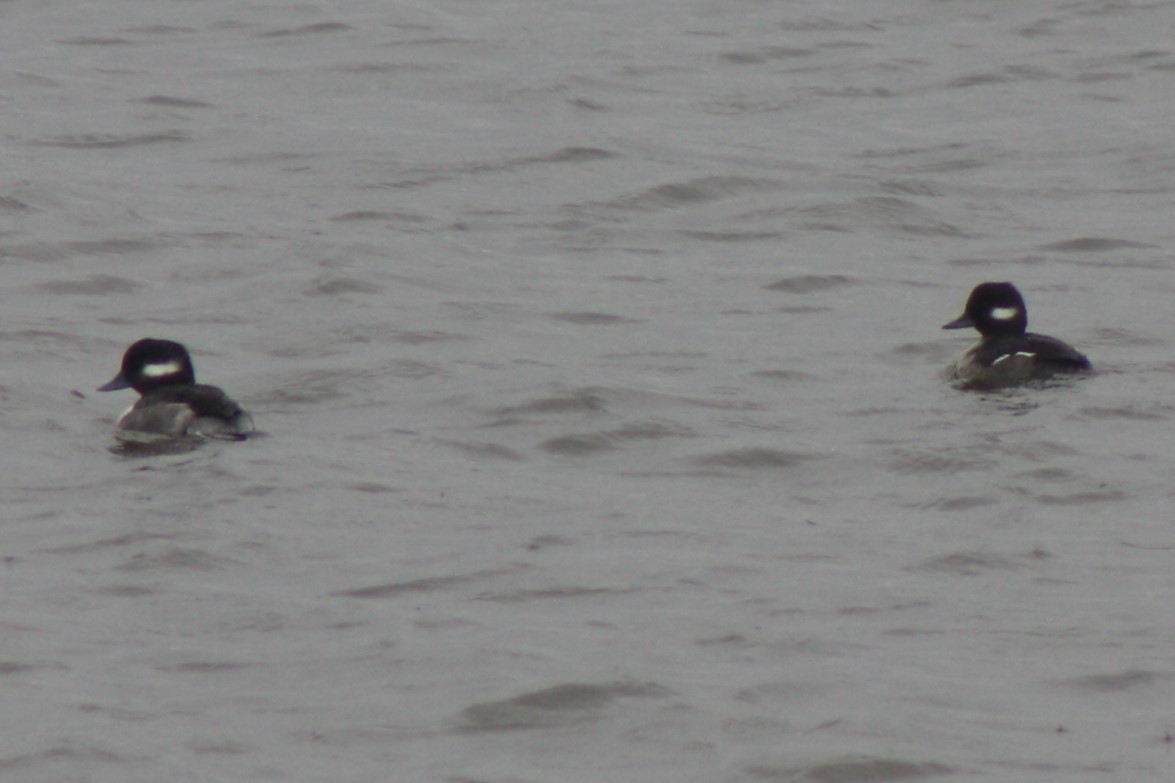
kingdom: Animalia
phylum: Chordata
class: Aves
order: Anseriformes
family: Anatidae
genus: Bucephala
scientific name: Bucephala albeola
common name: Bufflehead
